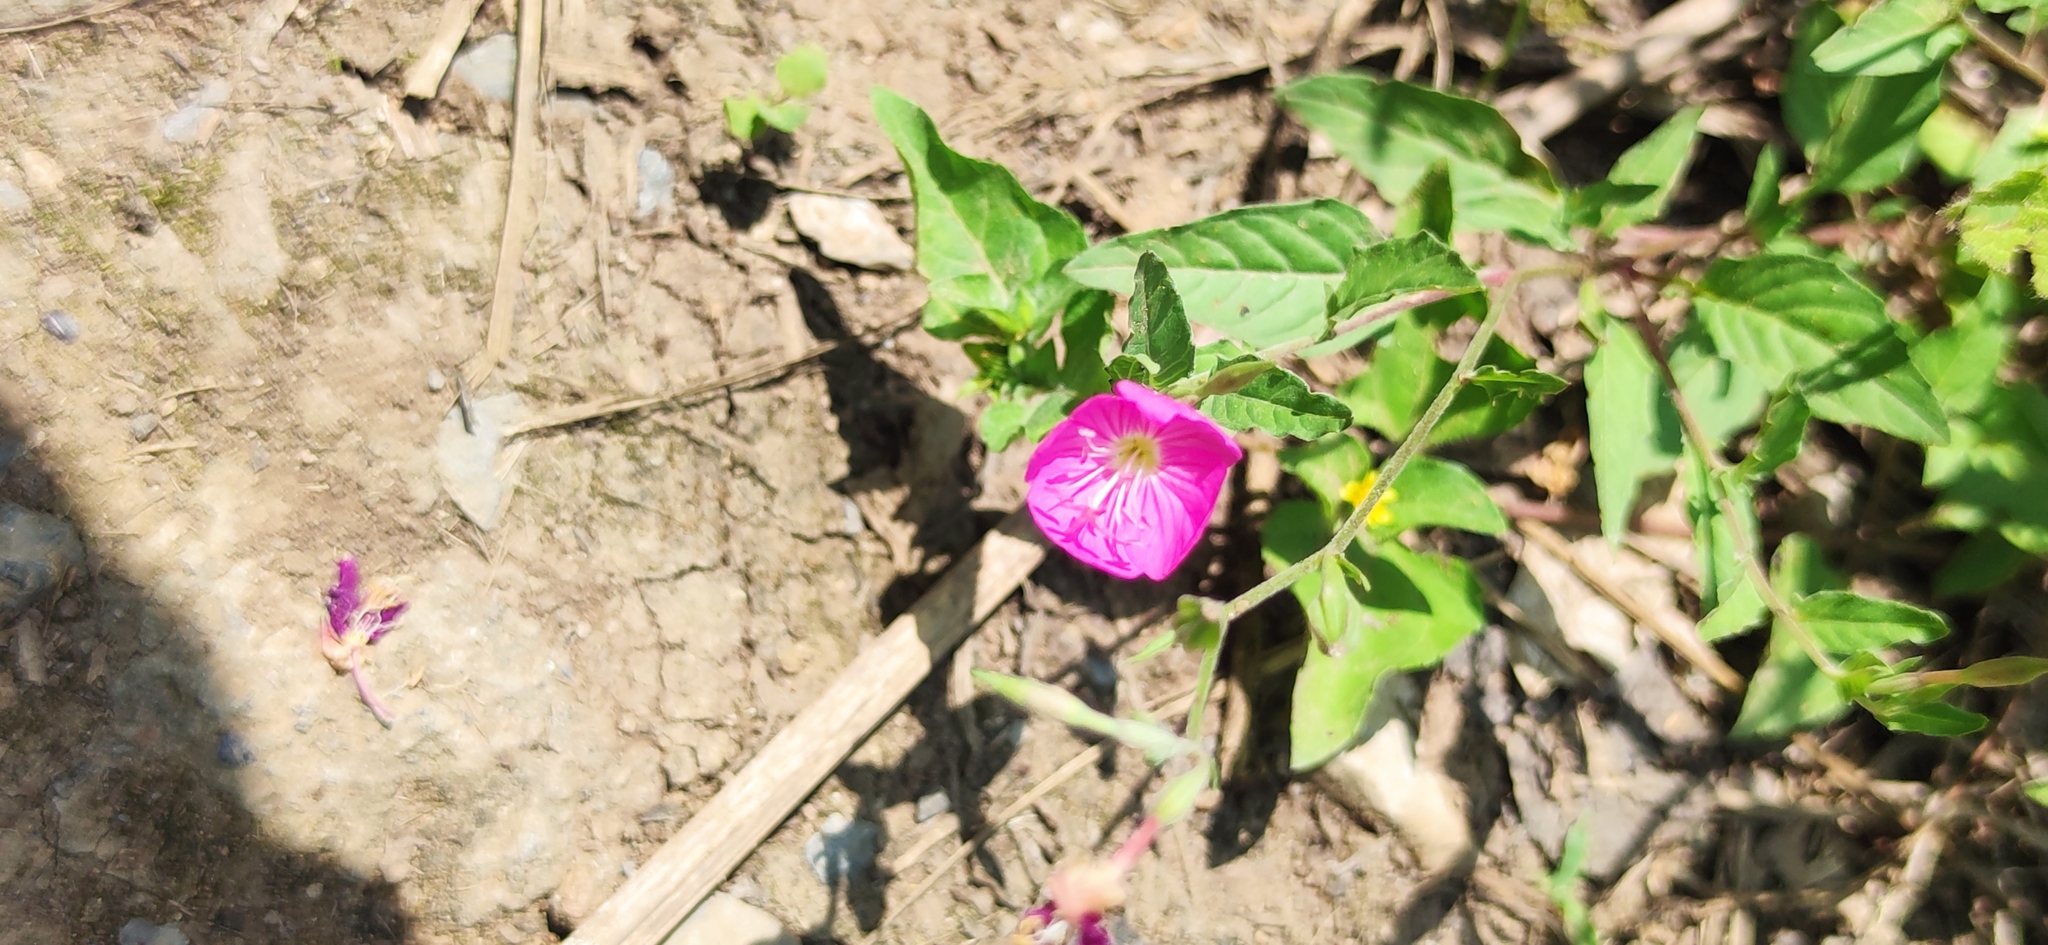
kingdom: Plantae
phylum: Tracheophyta
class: Magnoliopsida
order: Myrtales
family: Onagraceae
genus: Oenothera
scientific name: Oenothera rosea
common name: Rosy evening-primrose
